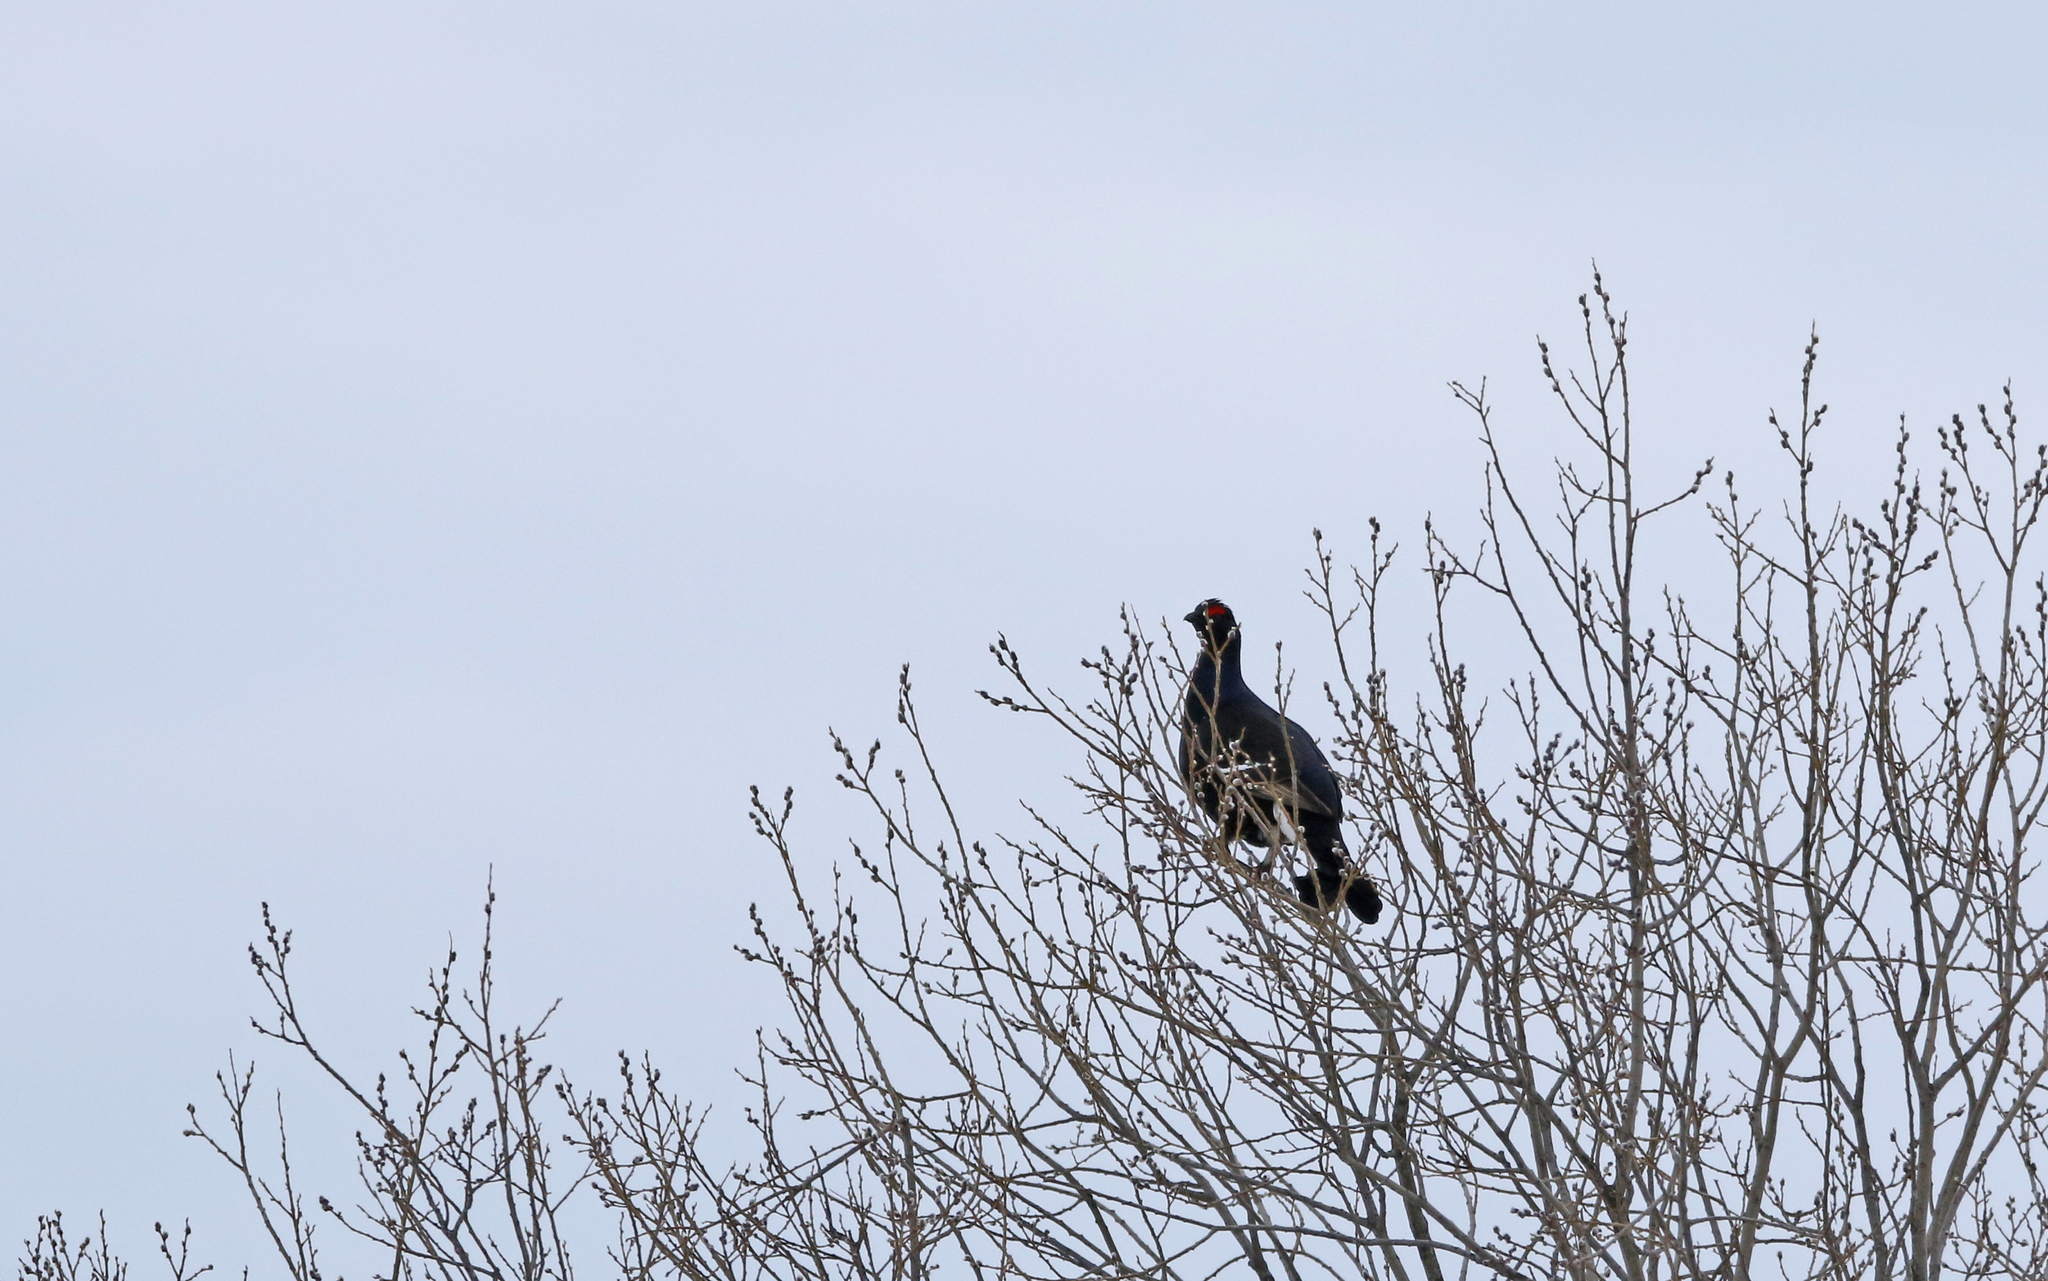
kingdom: Animalia
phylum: Chordata
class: Aves
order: Galliformes
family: Phasianidae
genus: Lyrurus
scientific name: Lyrurus tetrix
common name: Black grouse
